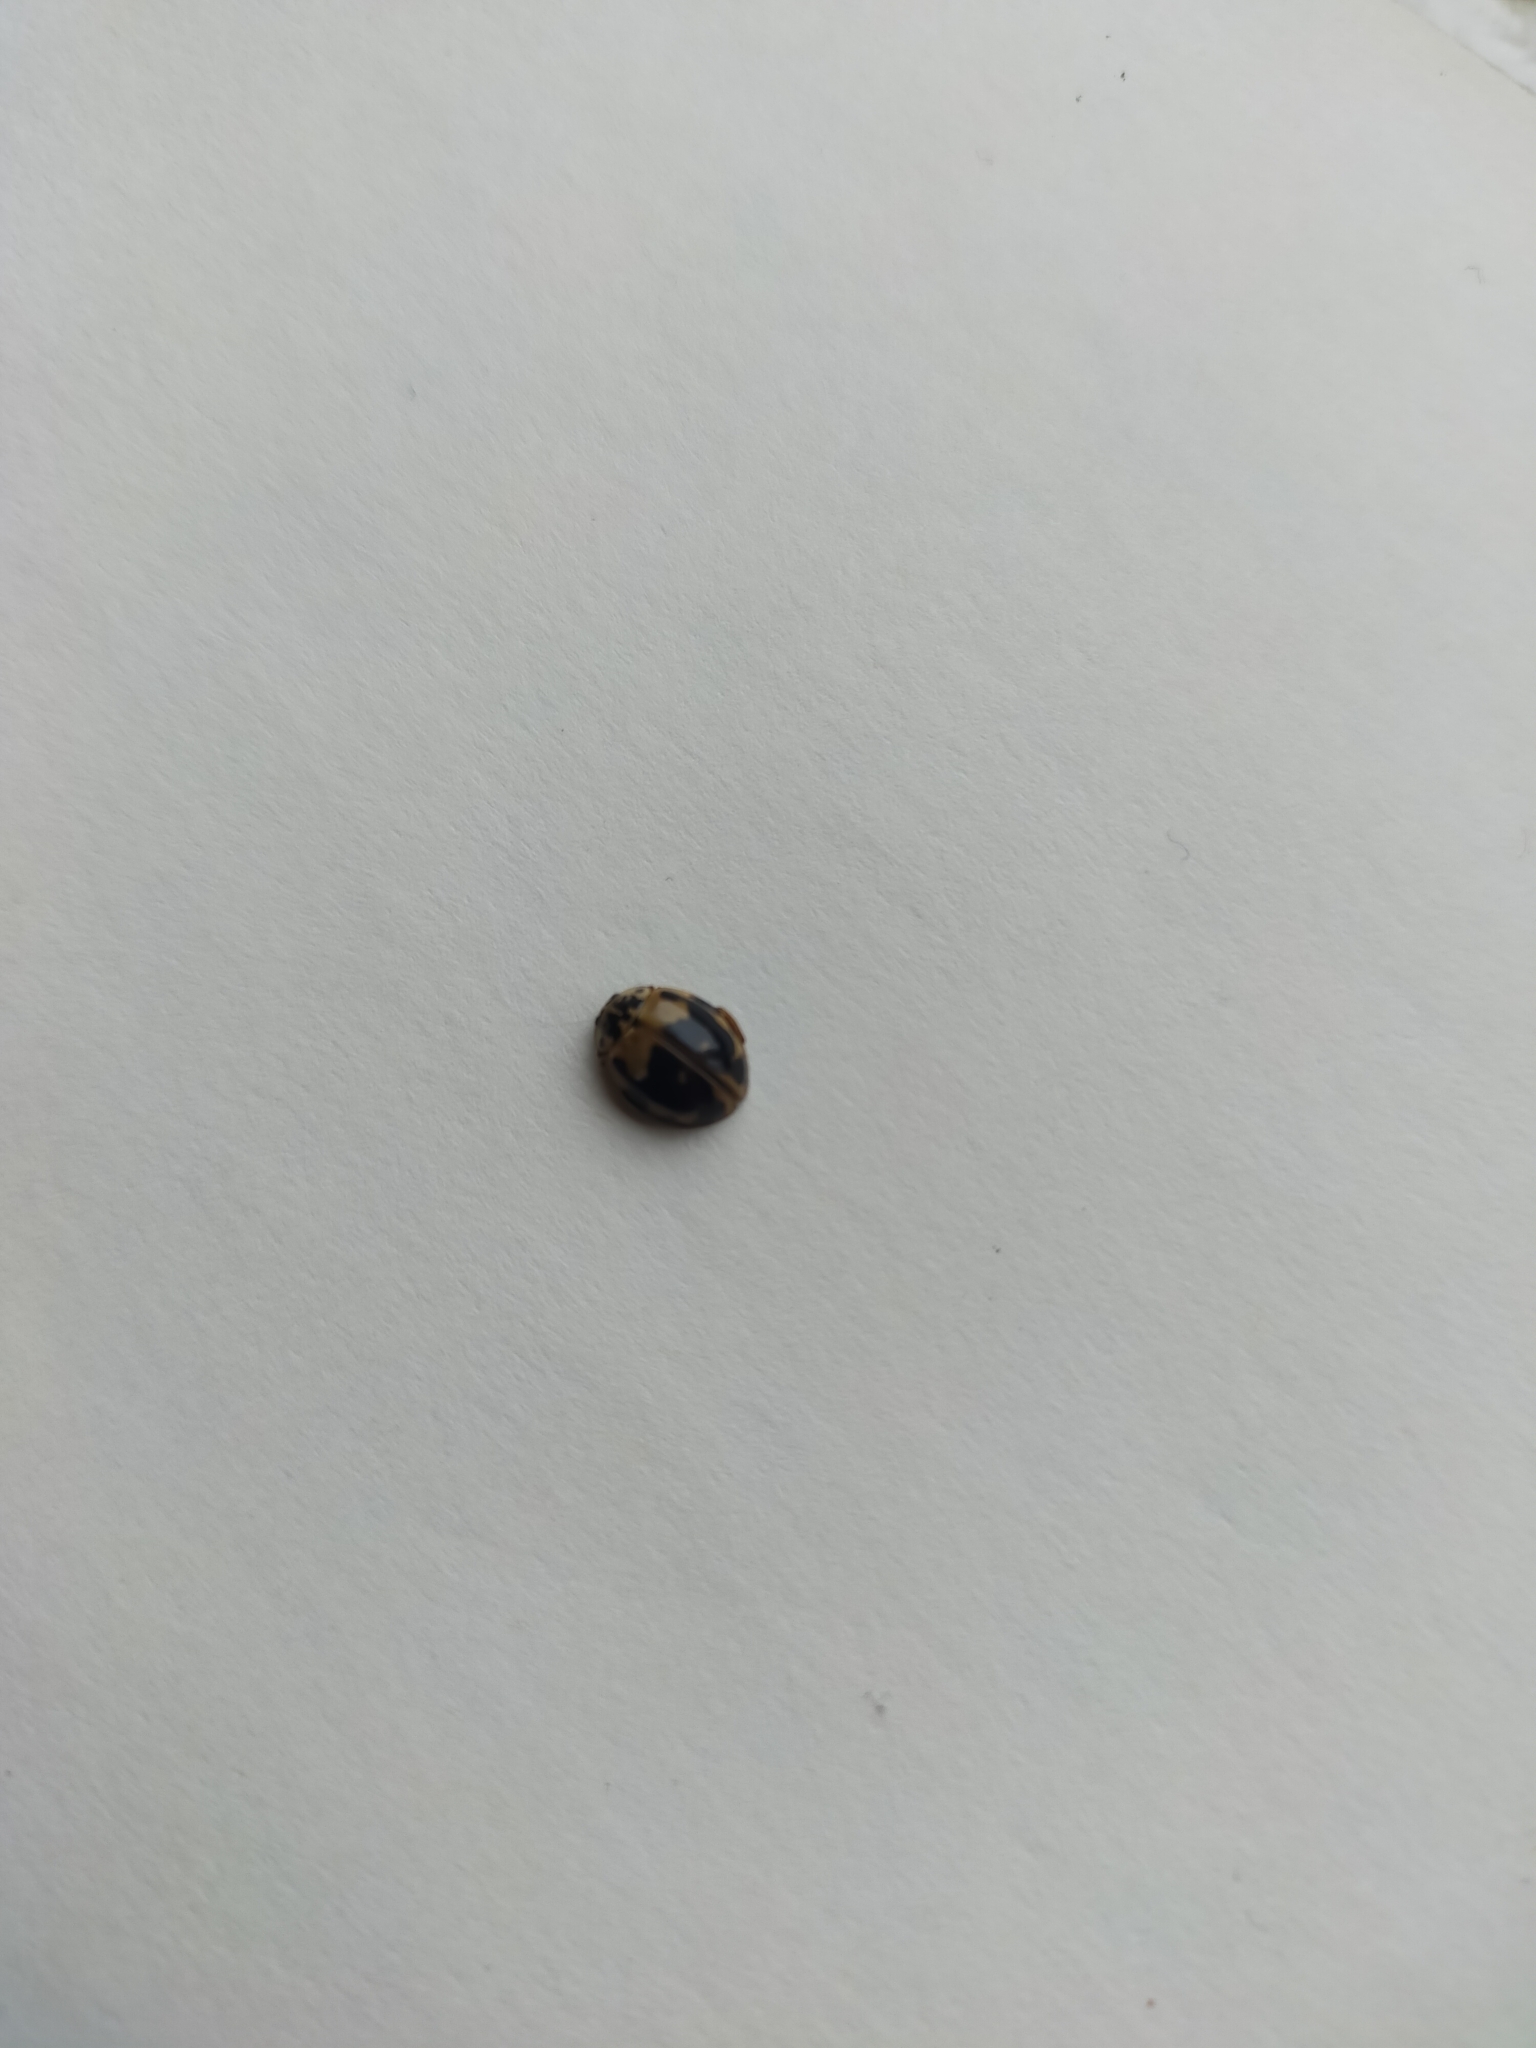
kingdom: Animalia
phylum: Arthropoda
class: Insecta
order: Coleoptera
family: Coccinellidae
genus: Harmonia
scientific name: Harmonia quadripunctata
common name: Cream-streaked ladybird
